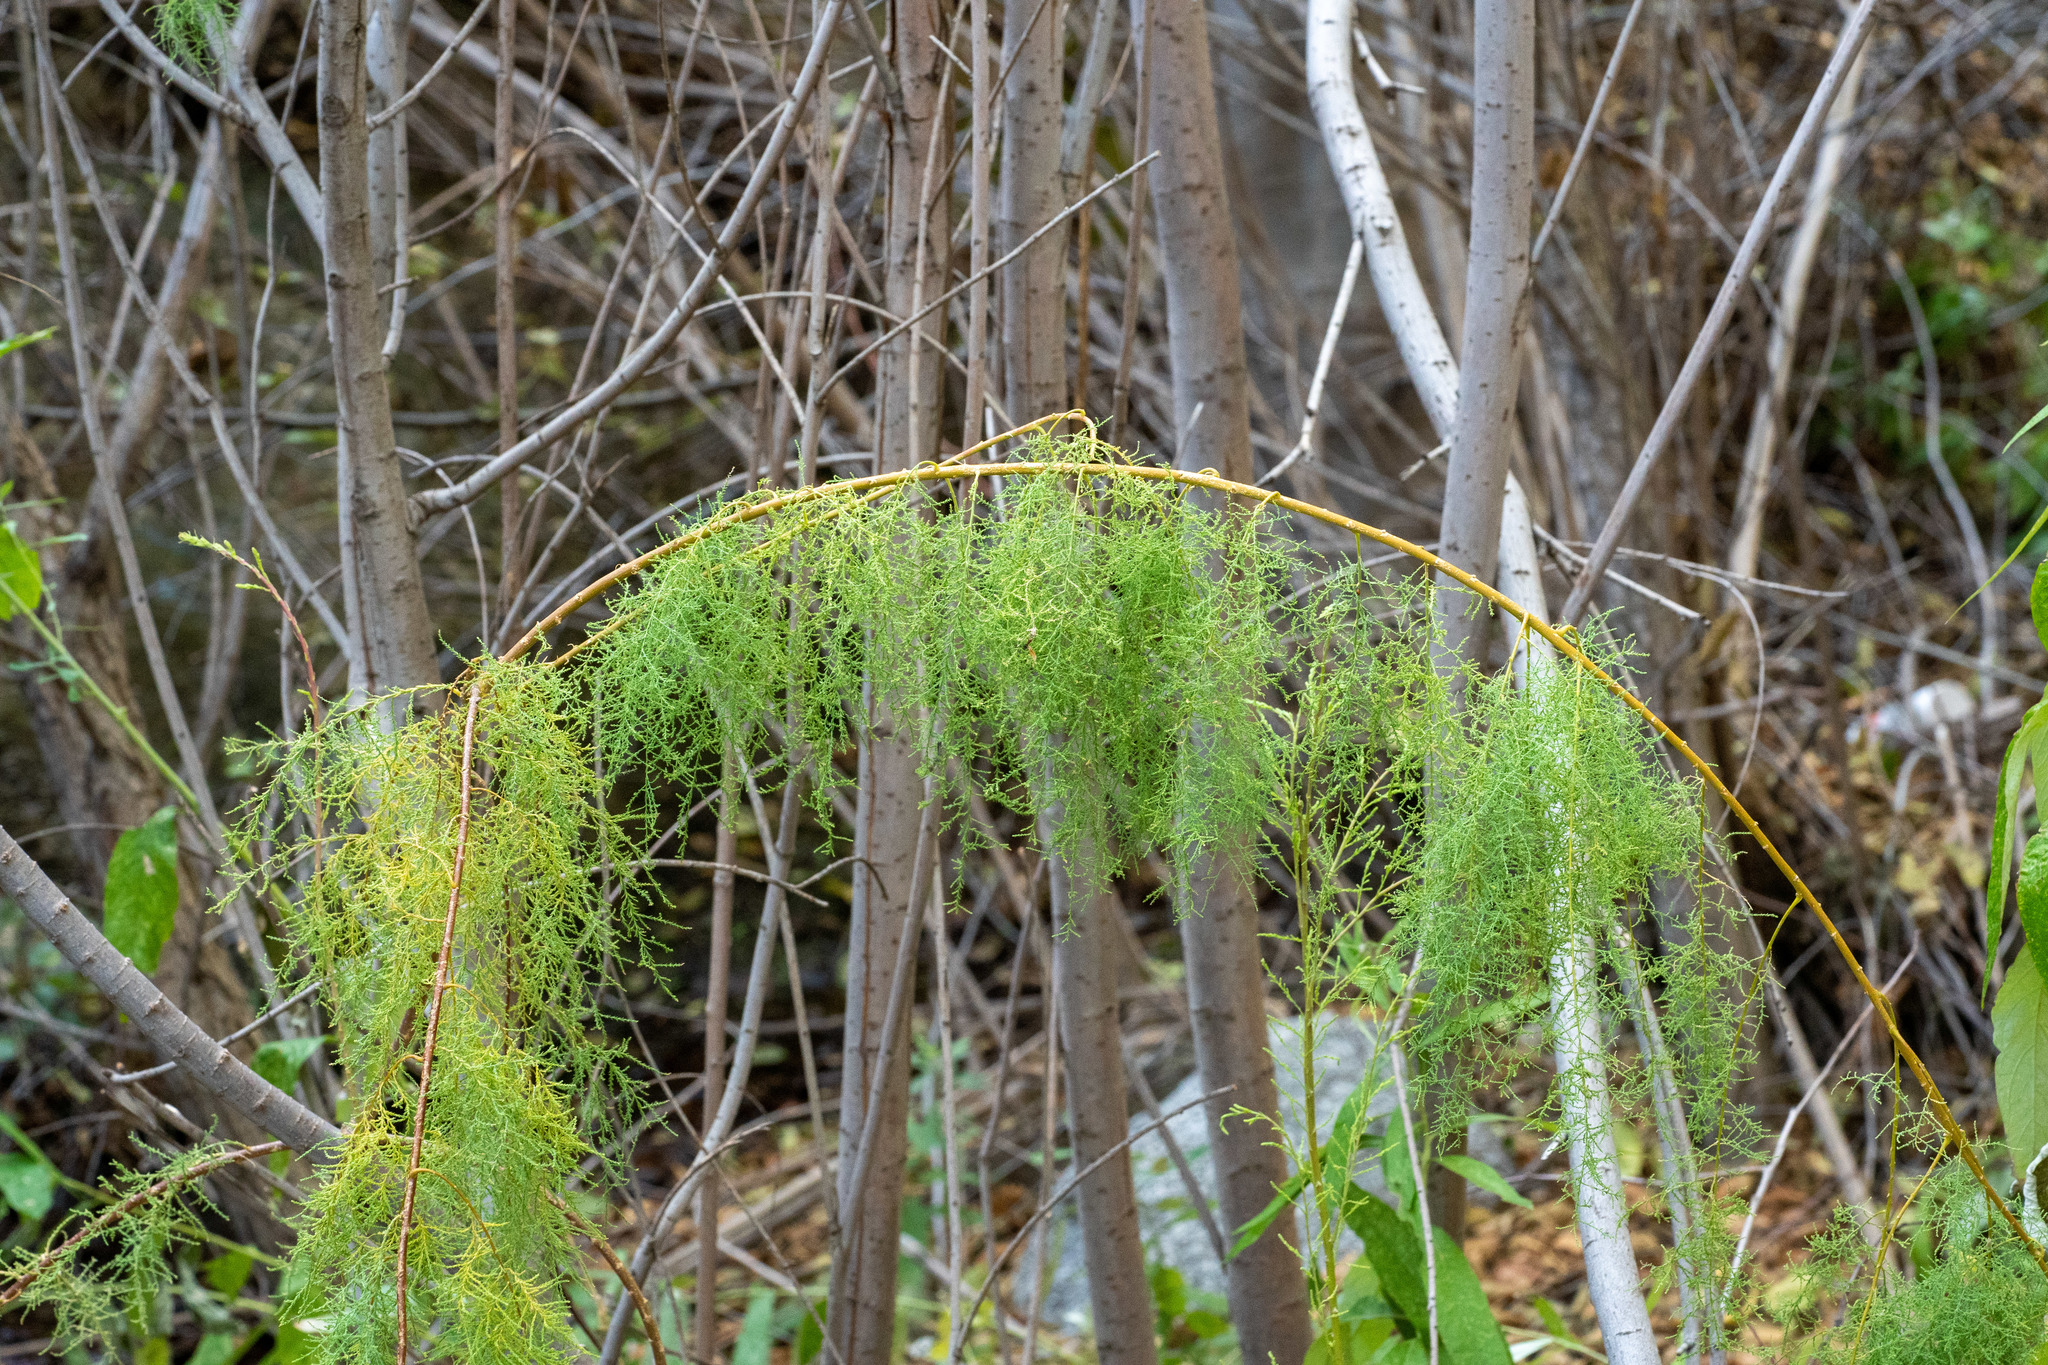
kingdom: Plantae
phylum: Tracheophyta
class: Magnoliopsida
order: Caryophyllales
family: Tamaricaceae
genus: Tamarix
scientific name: Tamarix
